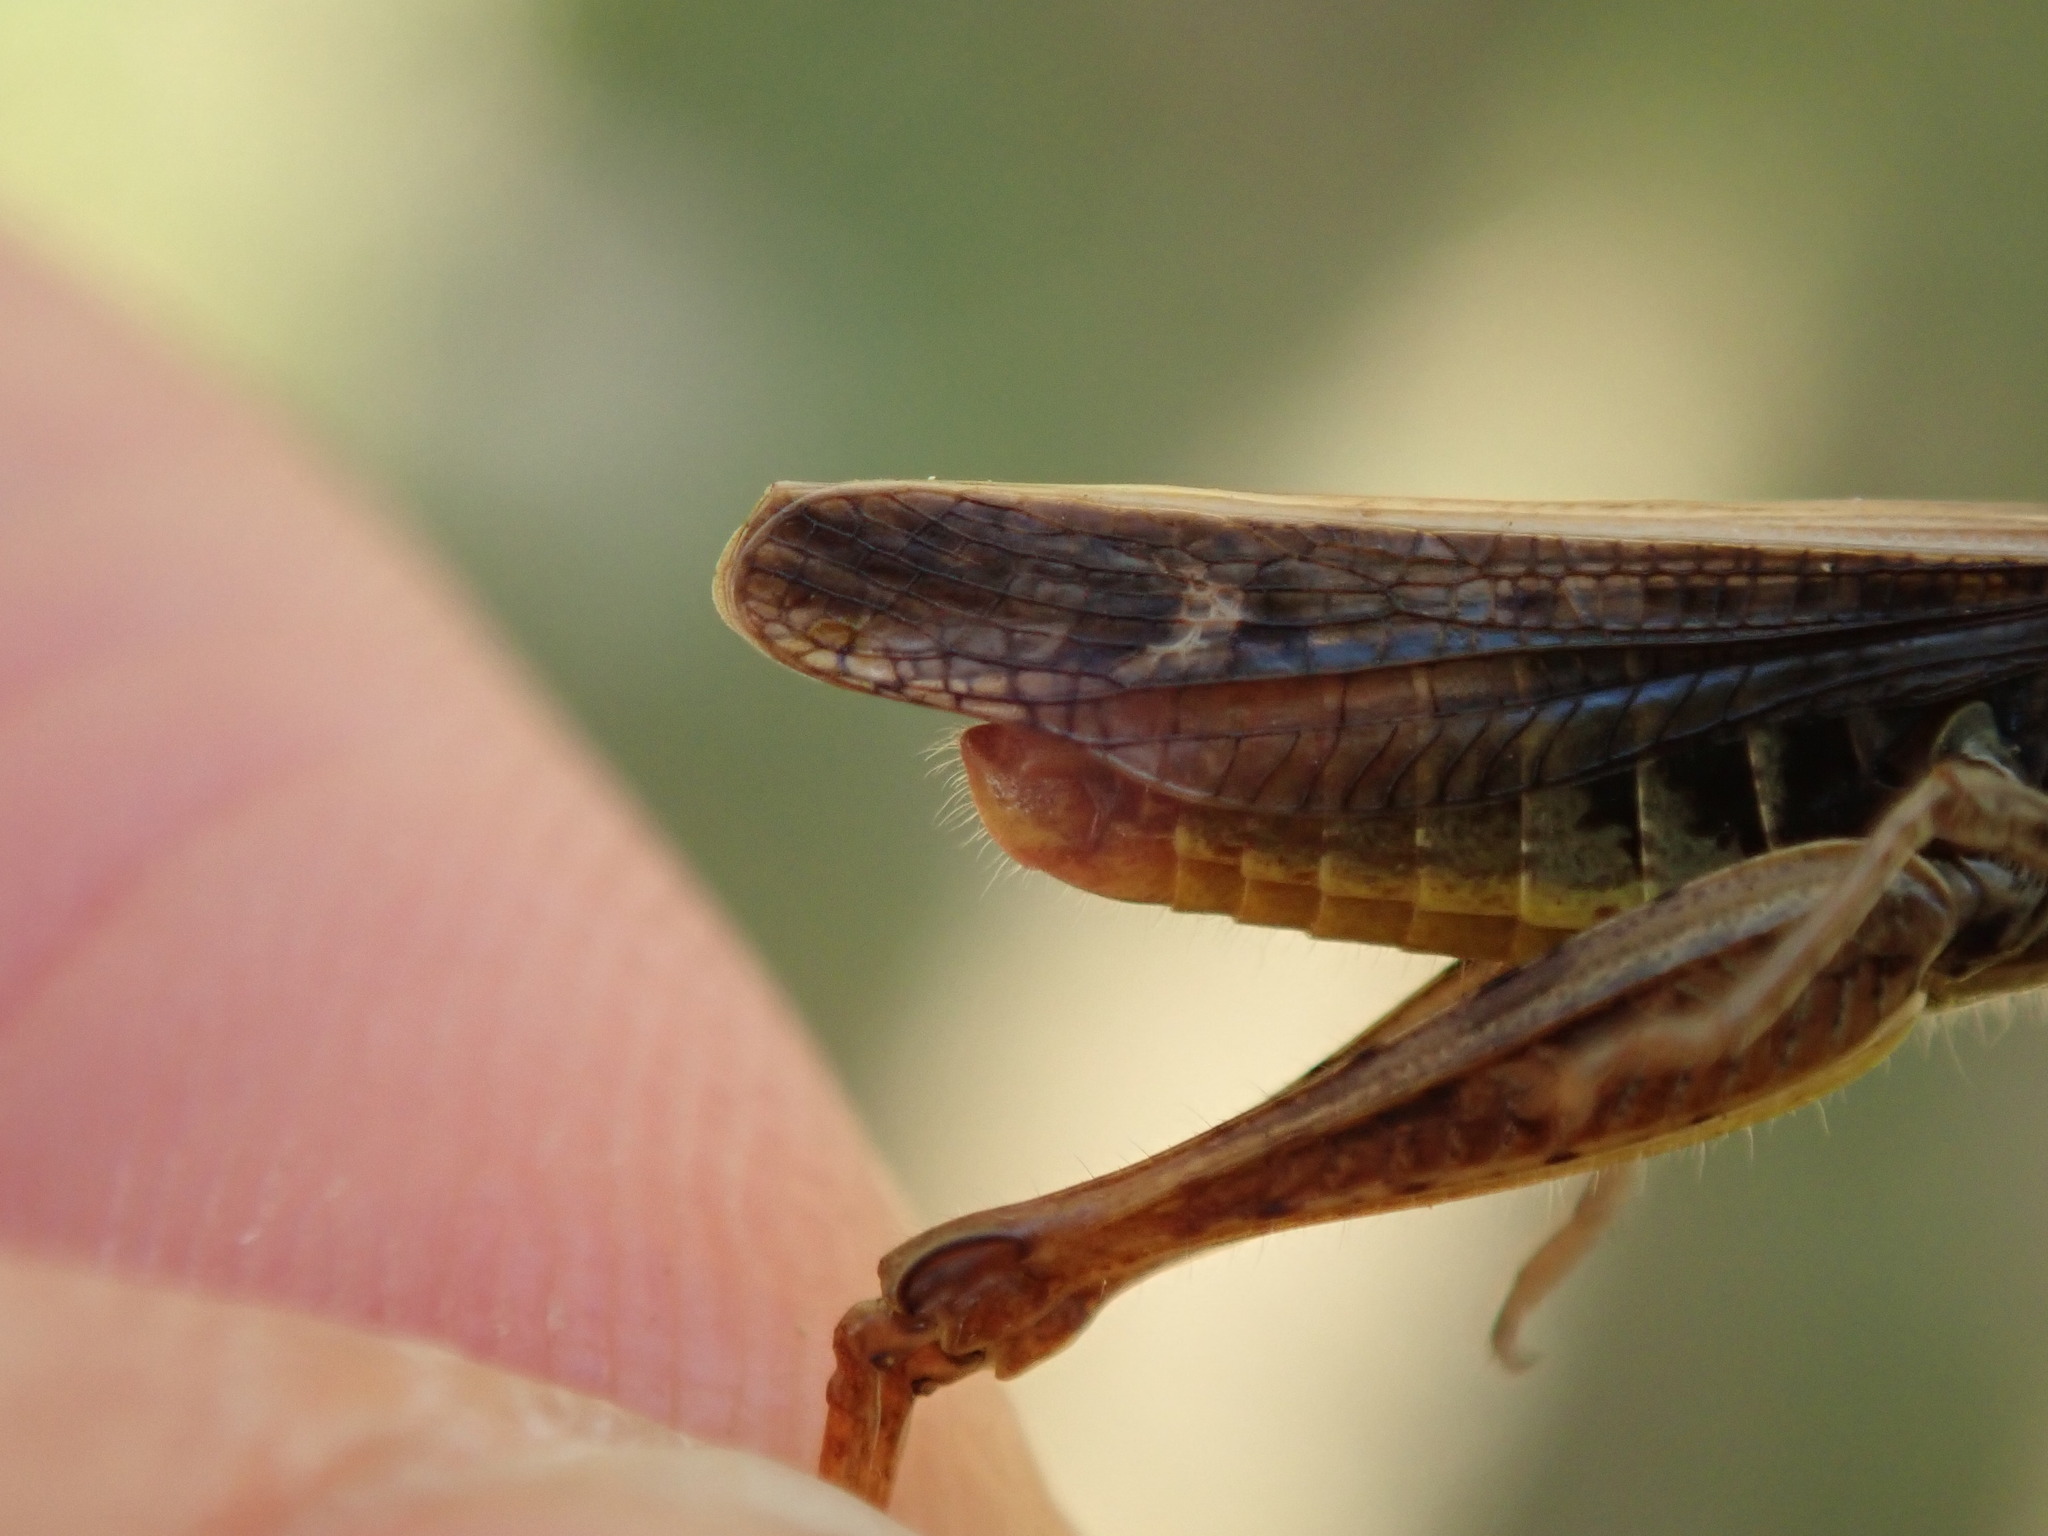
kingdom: Animalia
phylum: Arthropoda
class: Insecta
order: Orthoptera
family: Acrididae
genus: Chorthippus
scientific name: Chorthippus biguttulus
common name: Bow-winged grasshopper
